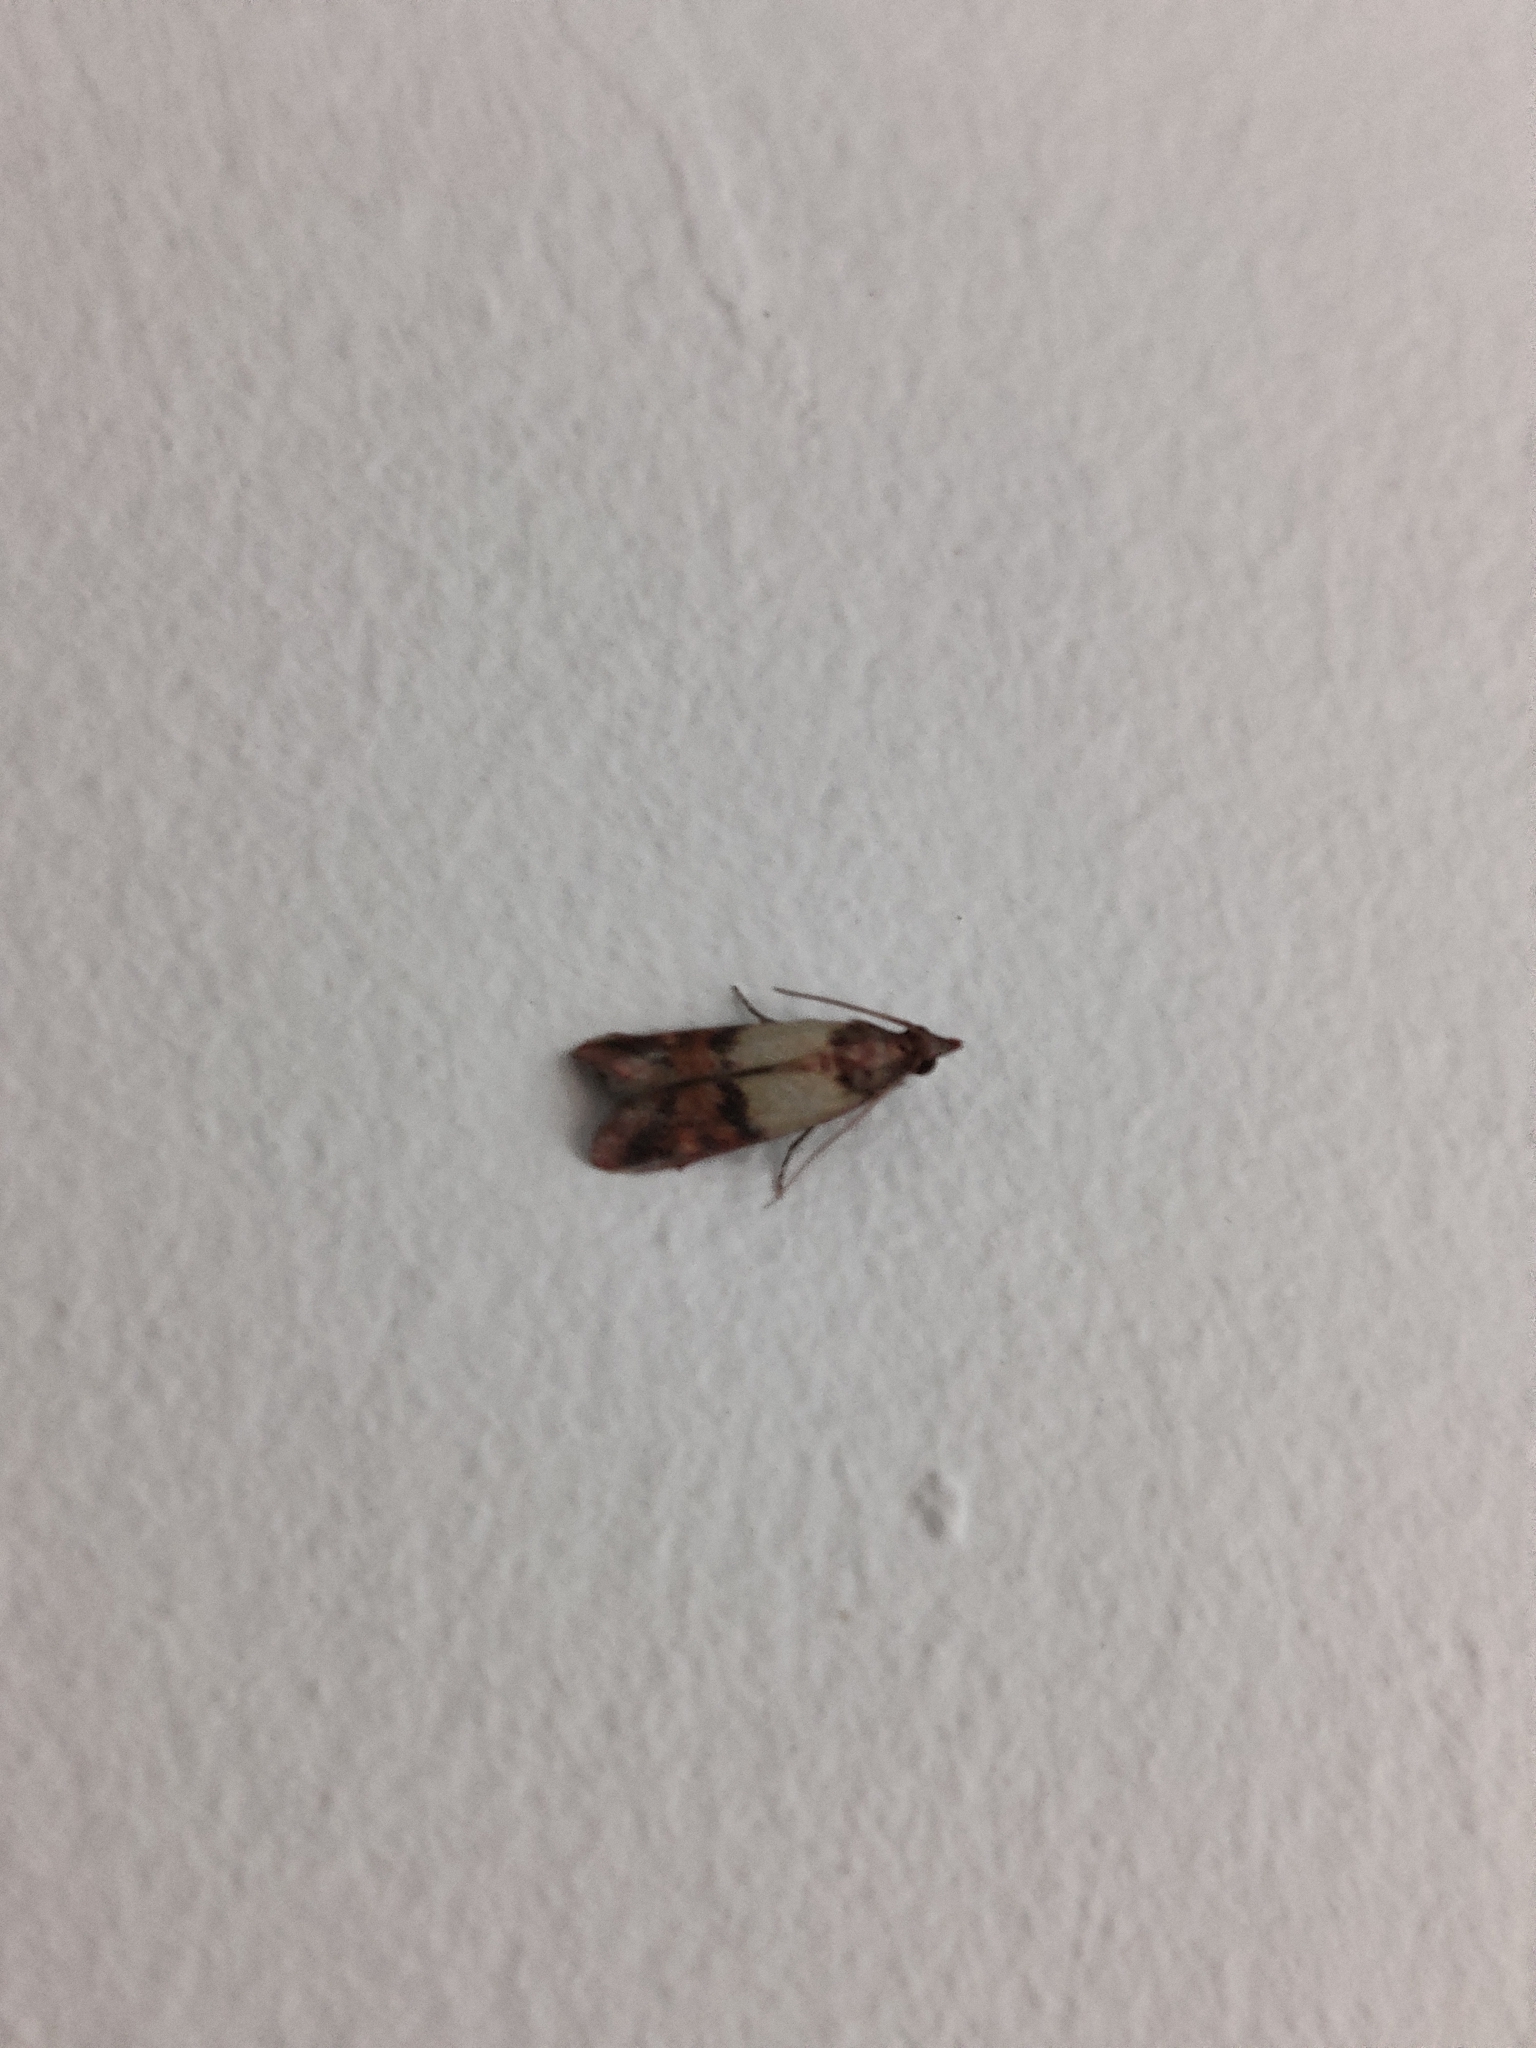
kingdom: Animalia
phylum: Arthropoda
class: Insecta
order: Lepidoptera
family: Pyralidae
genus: Plodia
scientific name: Plodia interpunctella
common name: Indian meal moth
